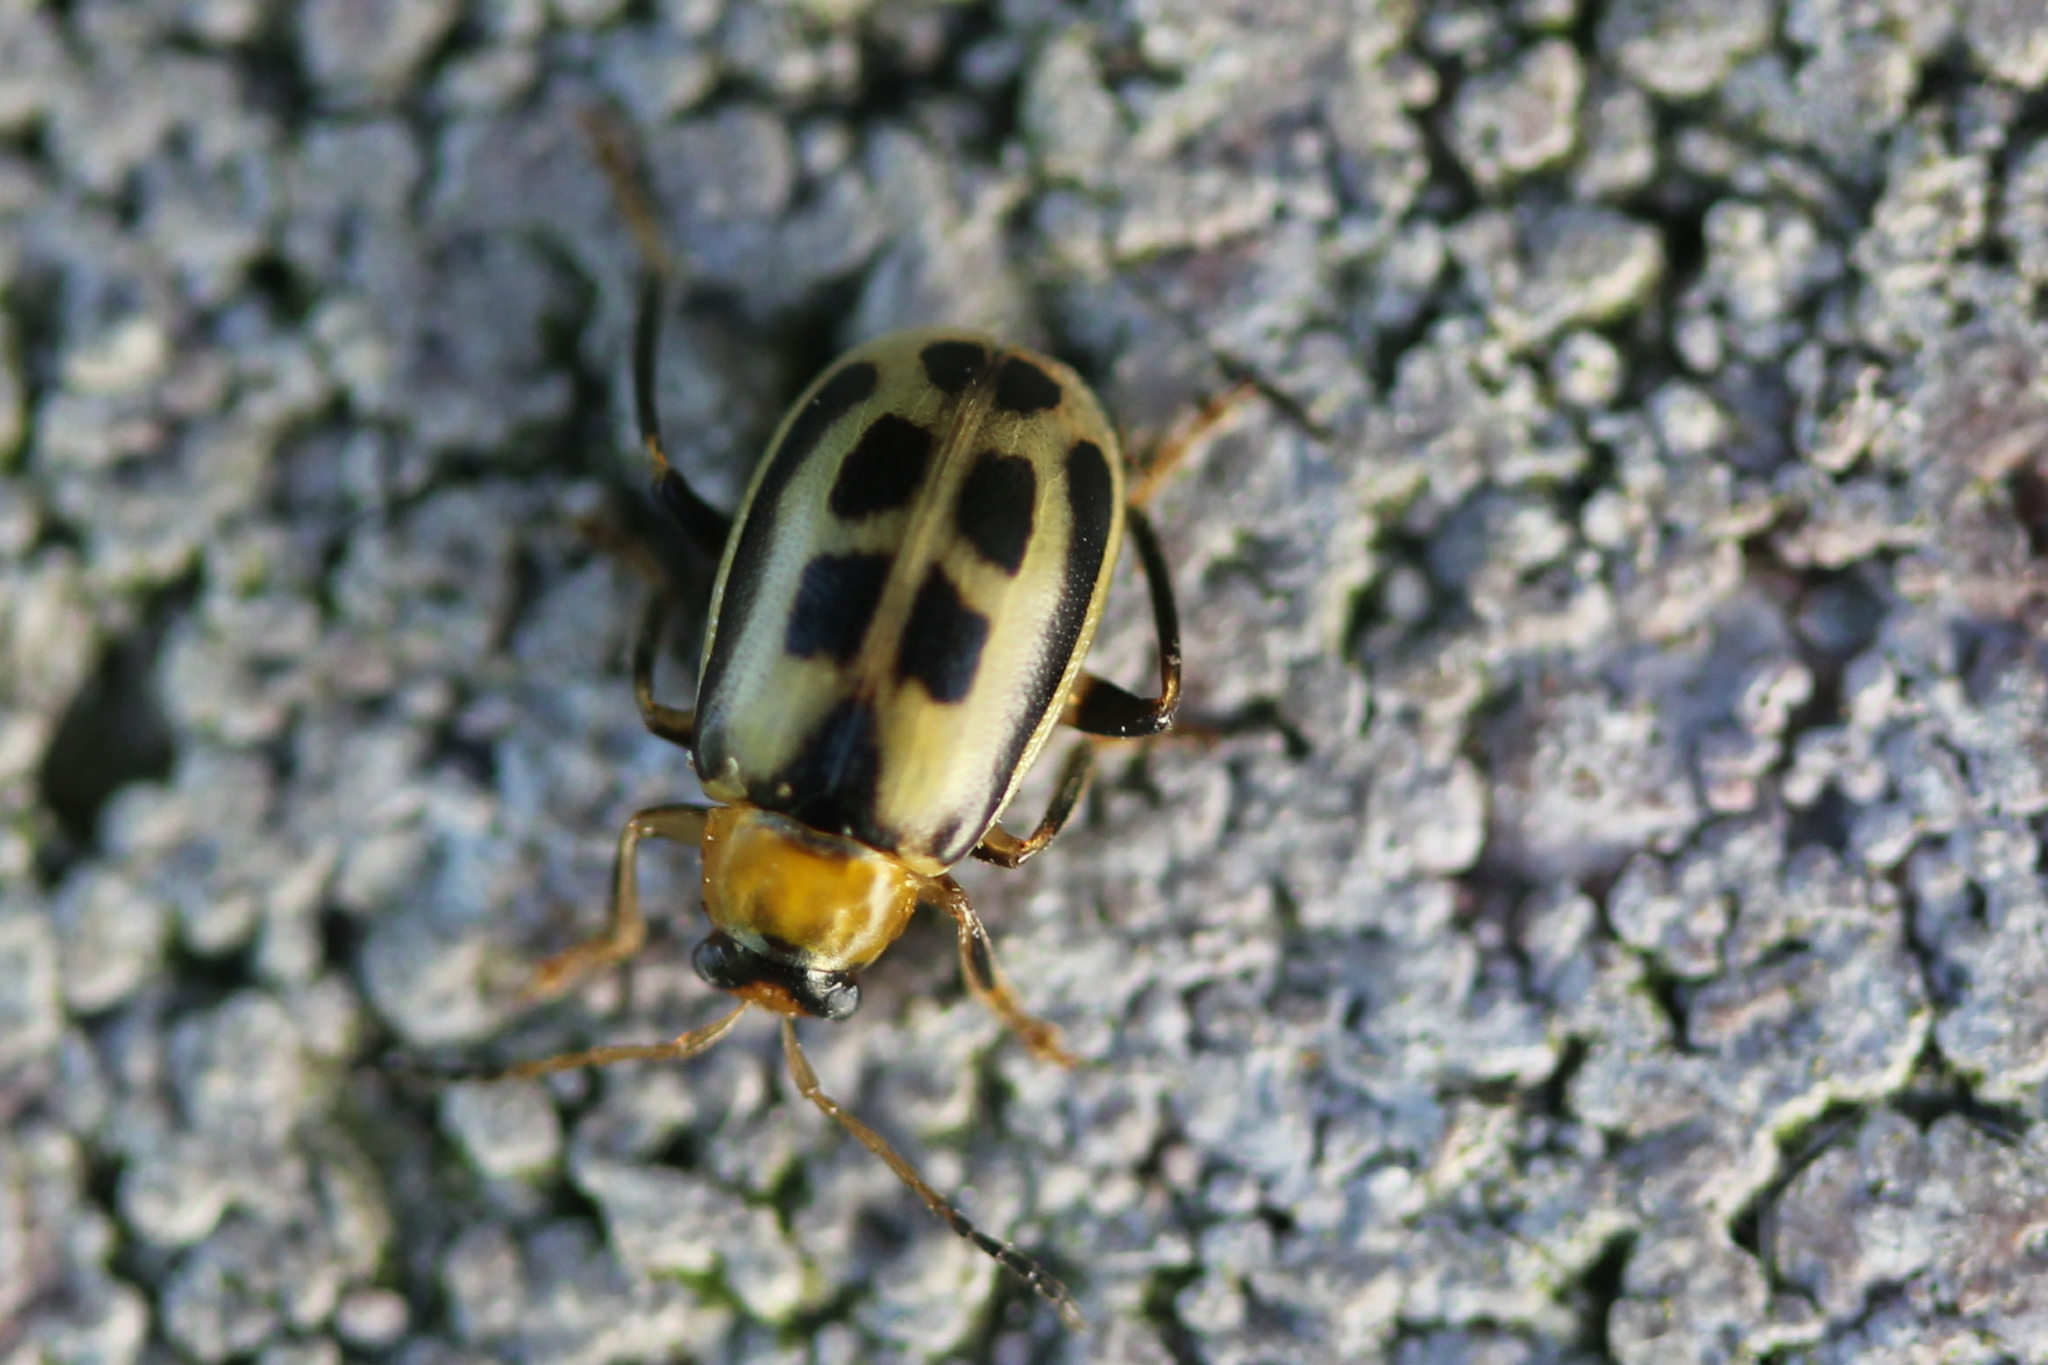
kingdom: Animalia
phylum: Arthropoda
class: Insecta
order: Coleoptera
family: Chrysomelidae
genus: Cerotoma
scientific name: Cerotoma trifurcata
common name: Bean leaf beetle
